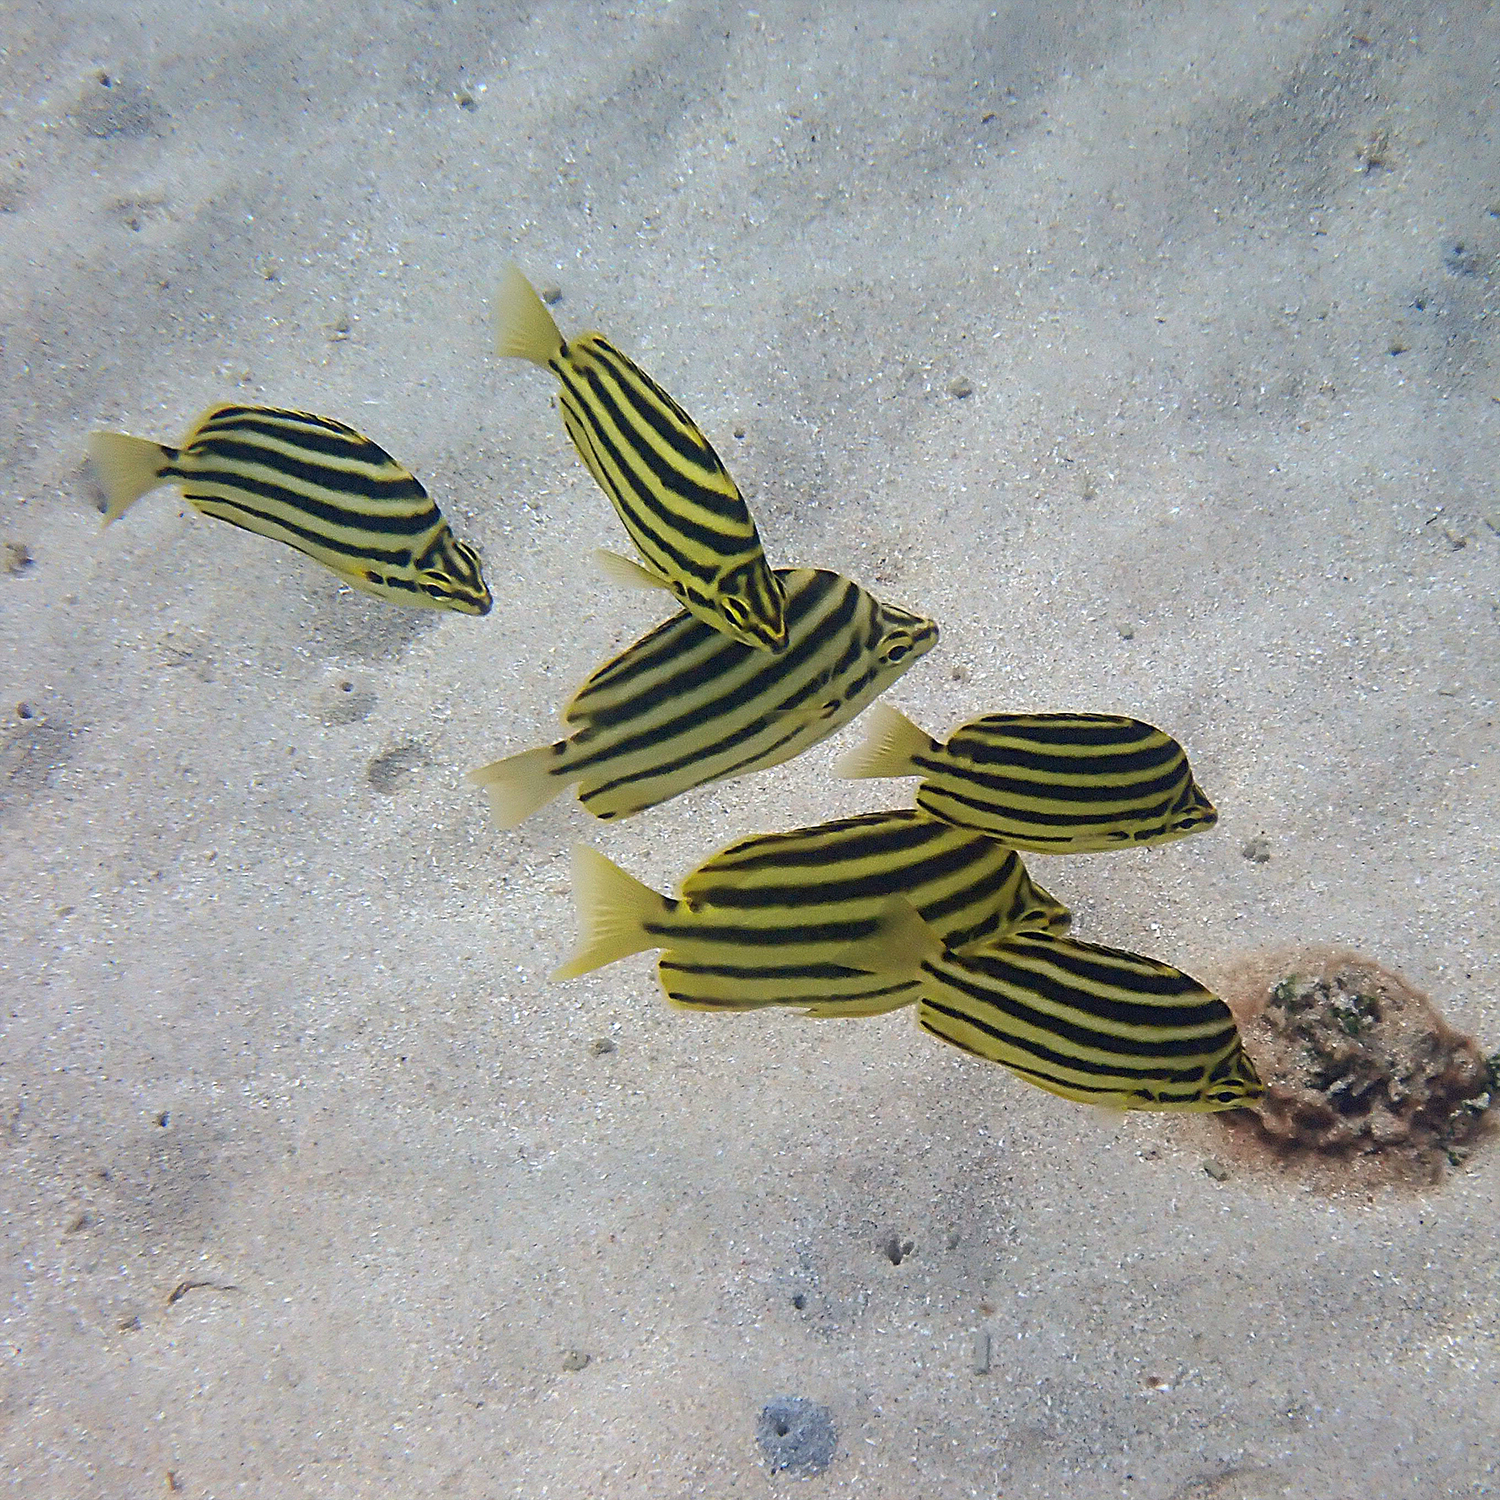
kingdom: Animalia
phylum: Chordata
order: Perciformes
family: Kyphosidae
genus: Microcanthus
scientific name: Microcanthus joyceae
